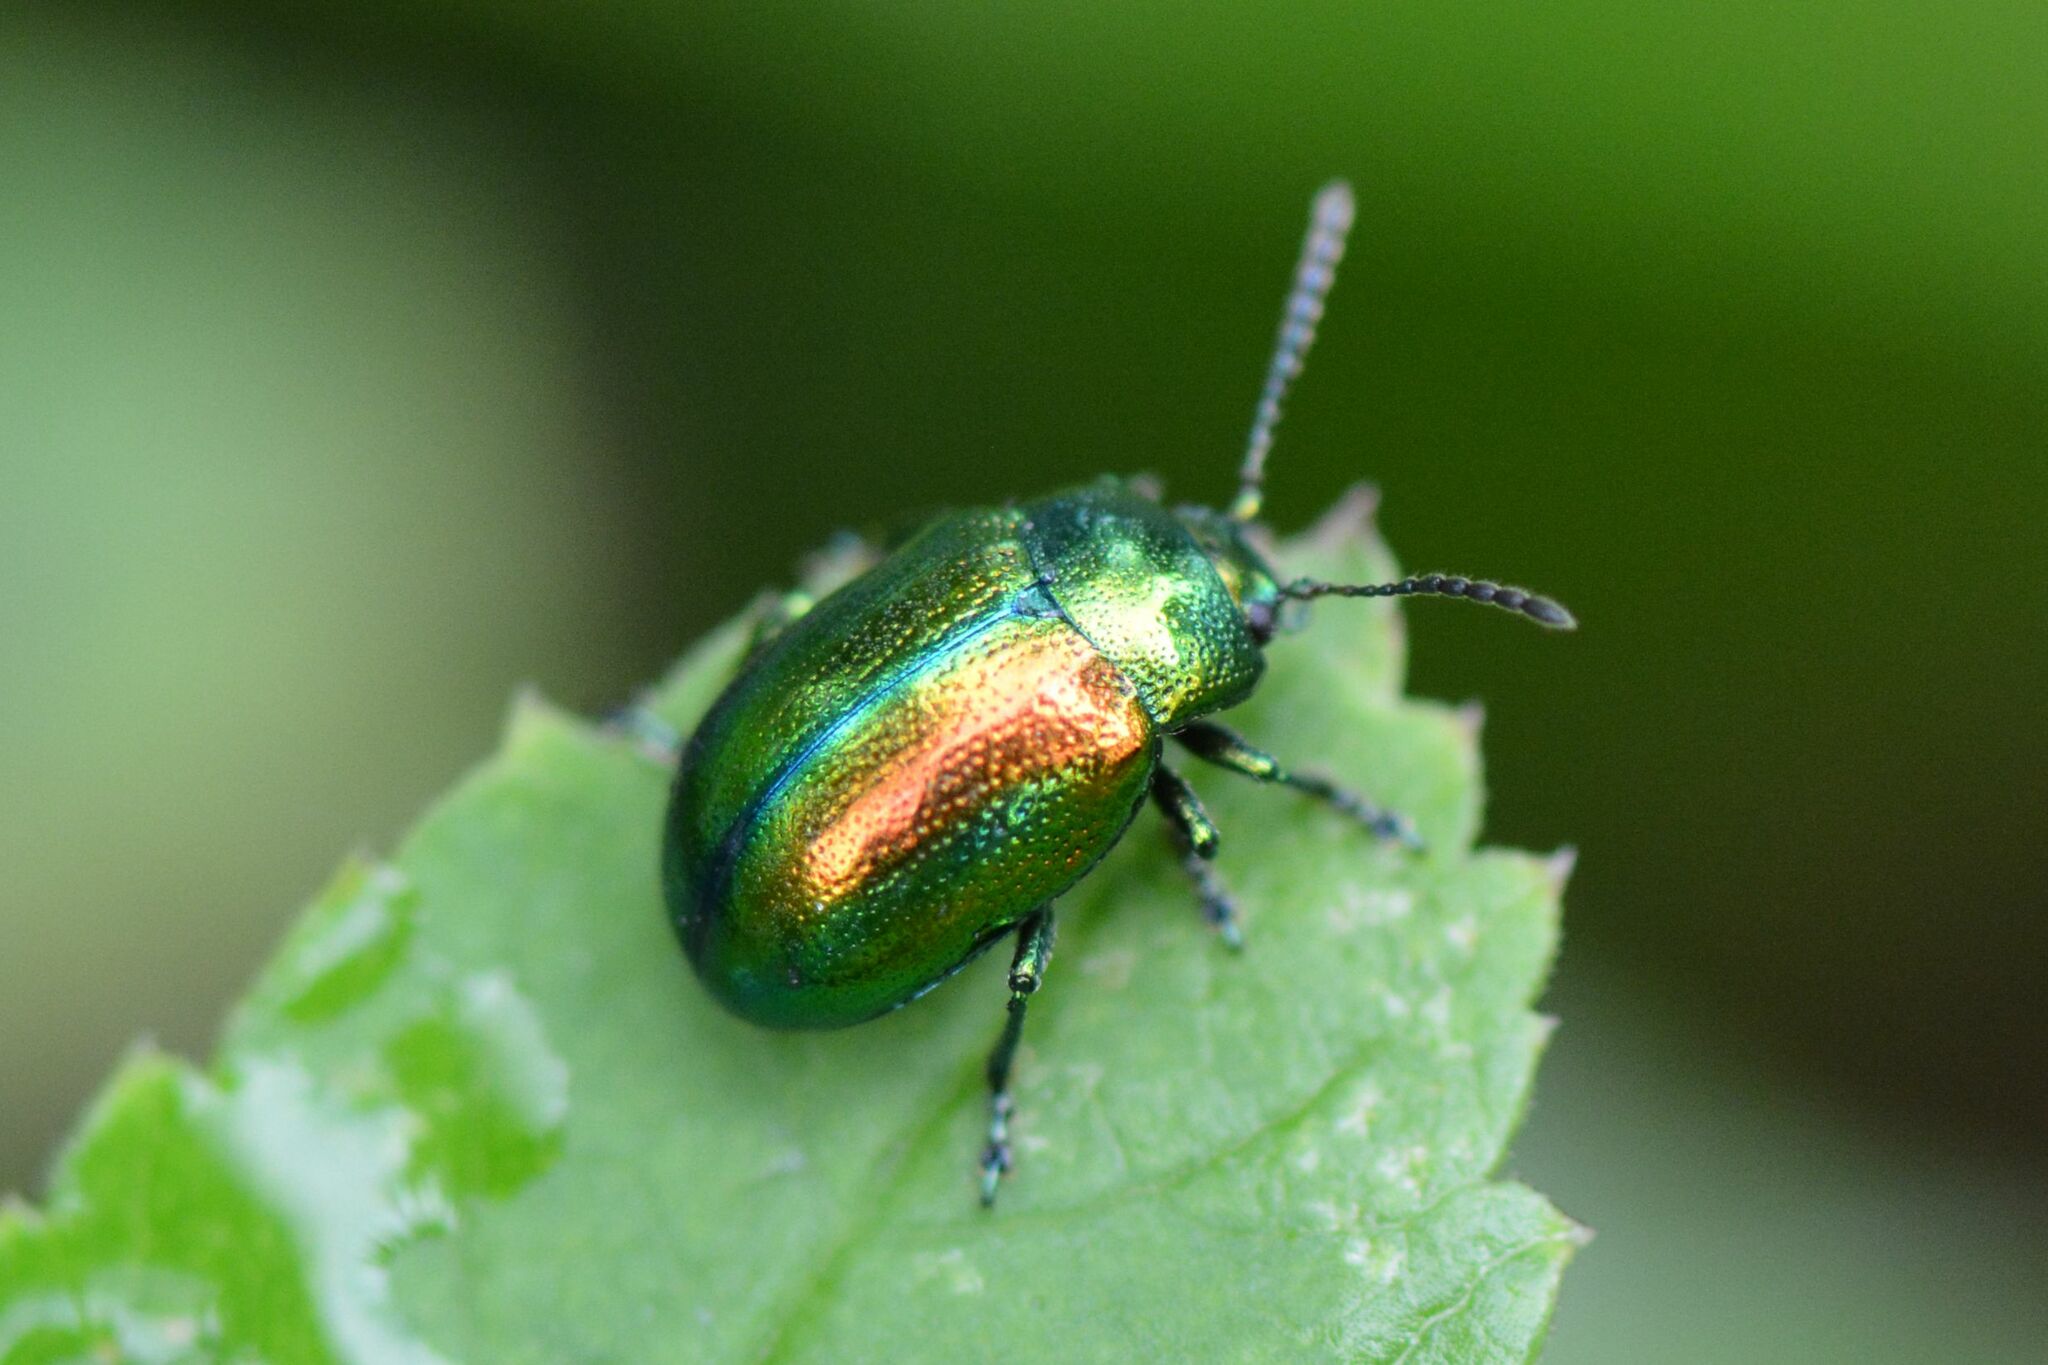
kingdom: Animalia
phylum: Arthropoda
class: Insecta
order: Coleoptera
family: Chrysomelidae
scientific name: Chrysomelidae
